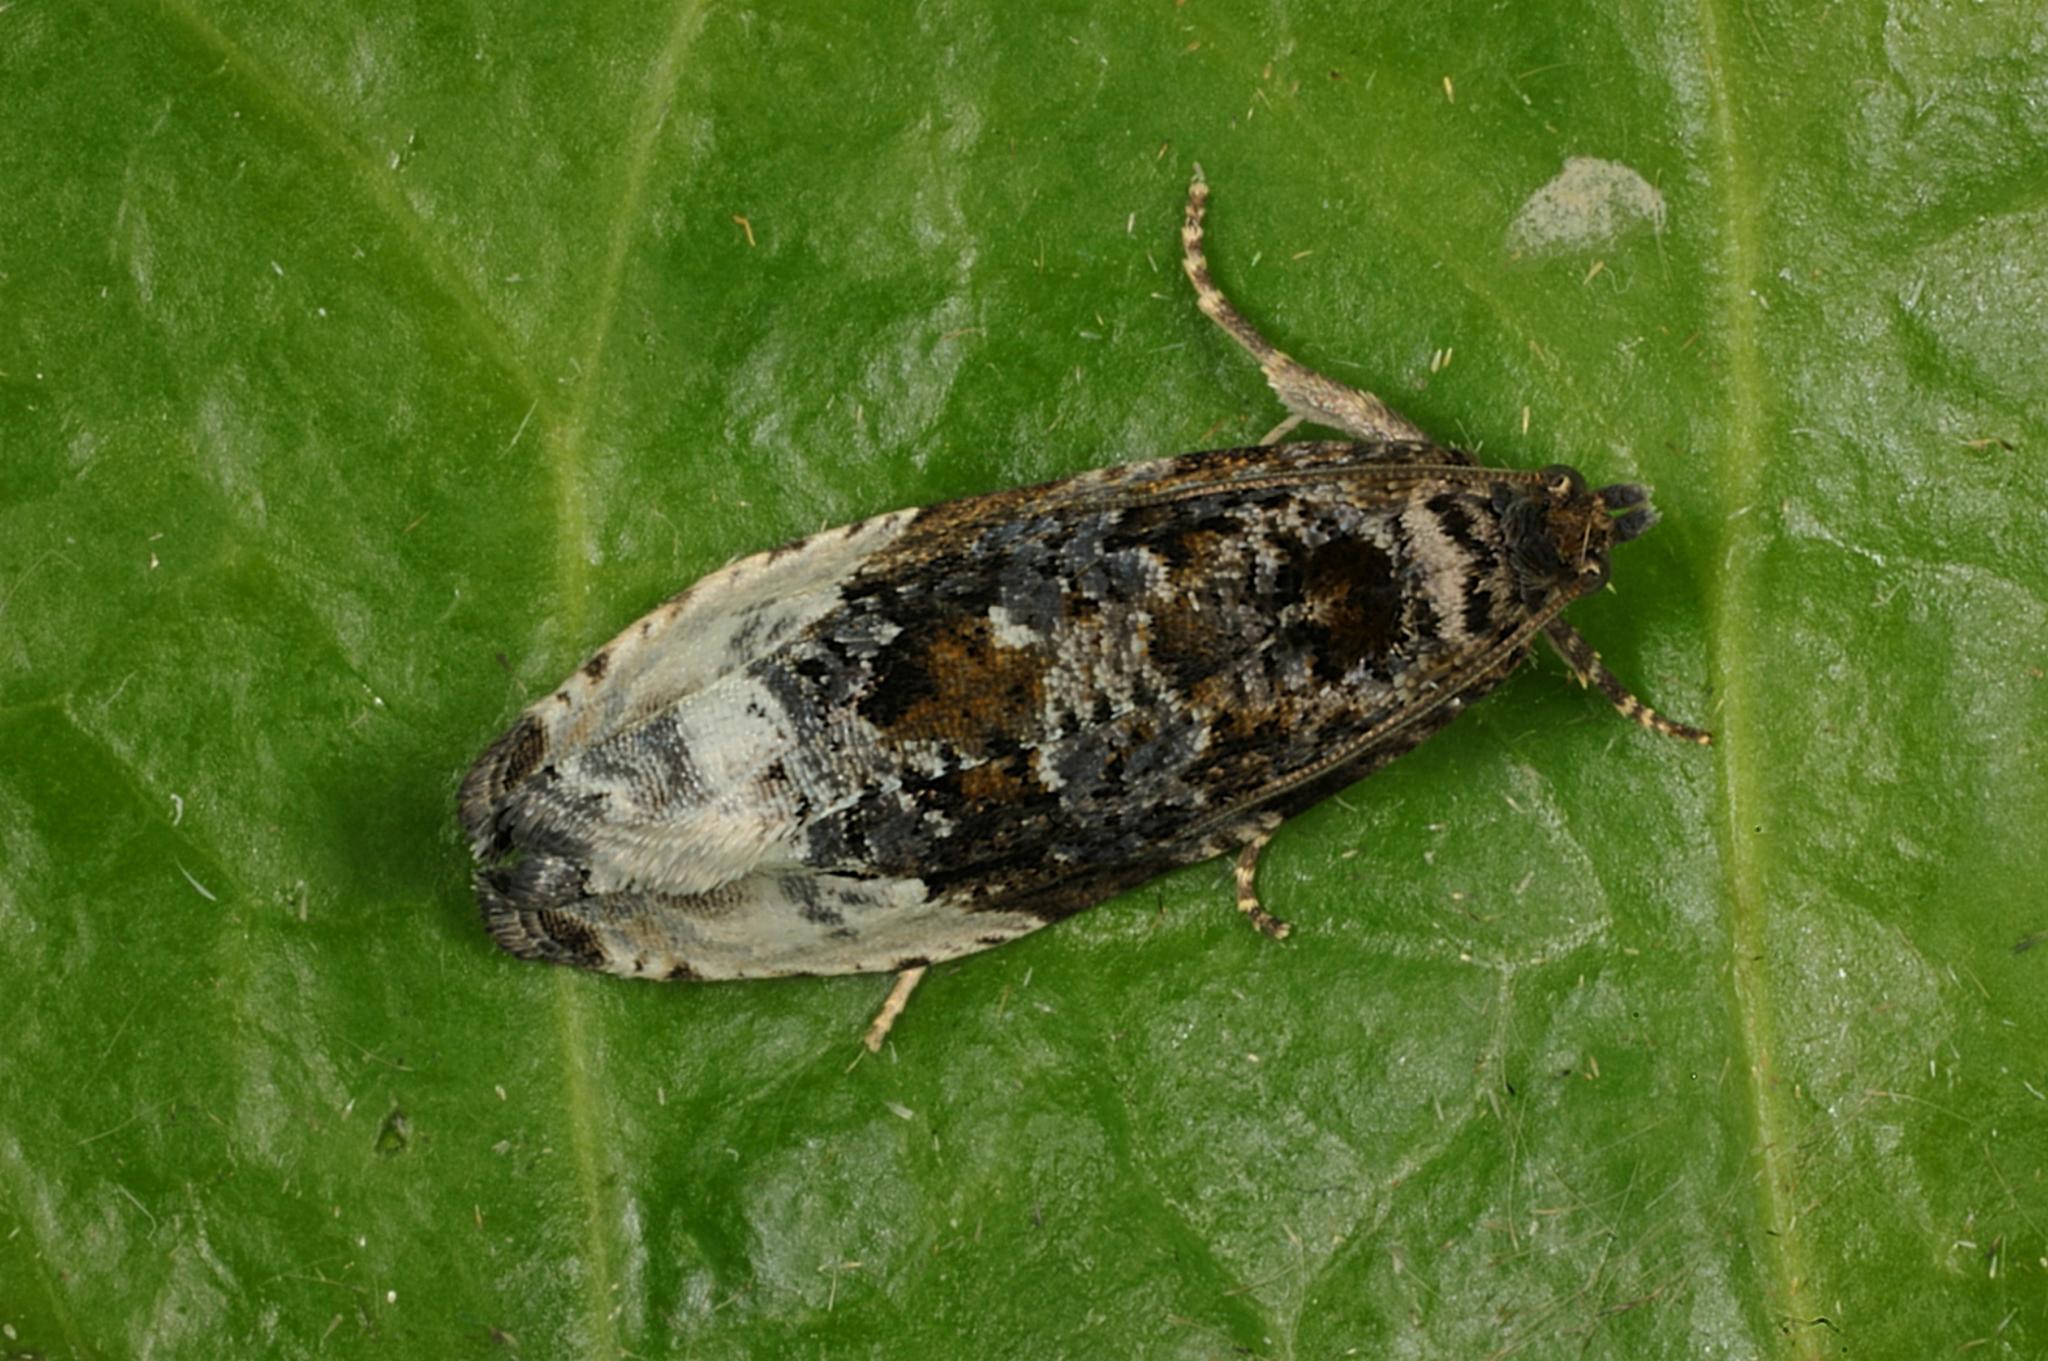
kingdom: Animalia
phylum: Arthropoda
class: Insecta
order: Lepidoptera
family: Tortricidae
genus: Hedya
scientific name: Hedya nubiferana
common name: Marbled orchard tortrix
